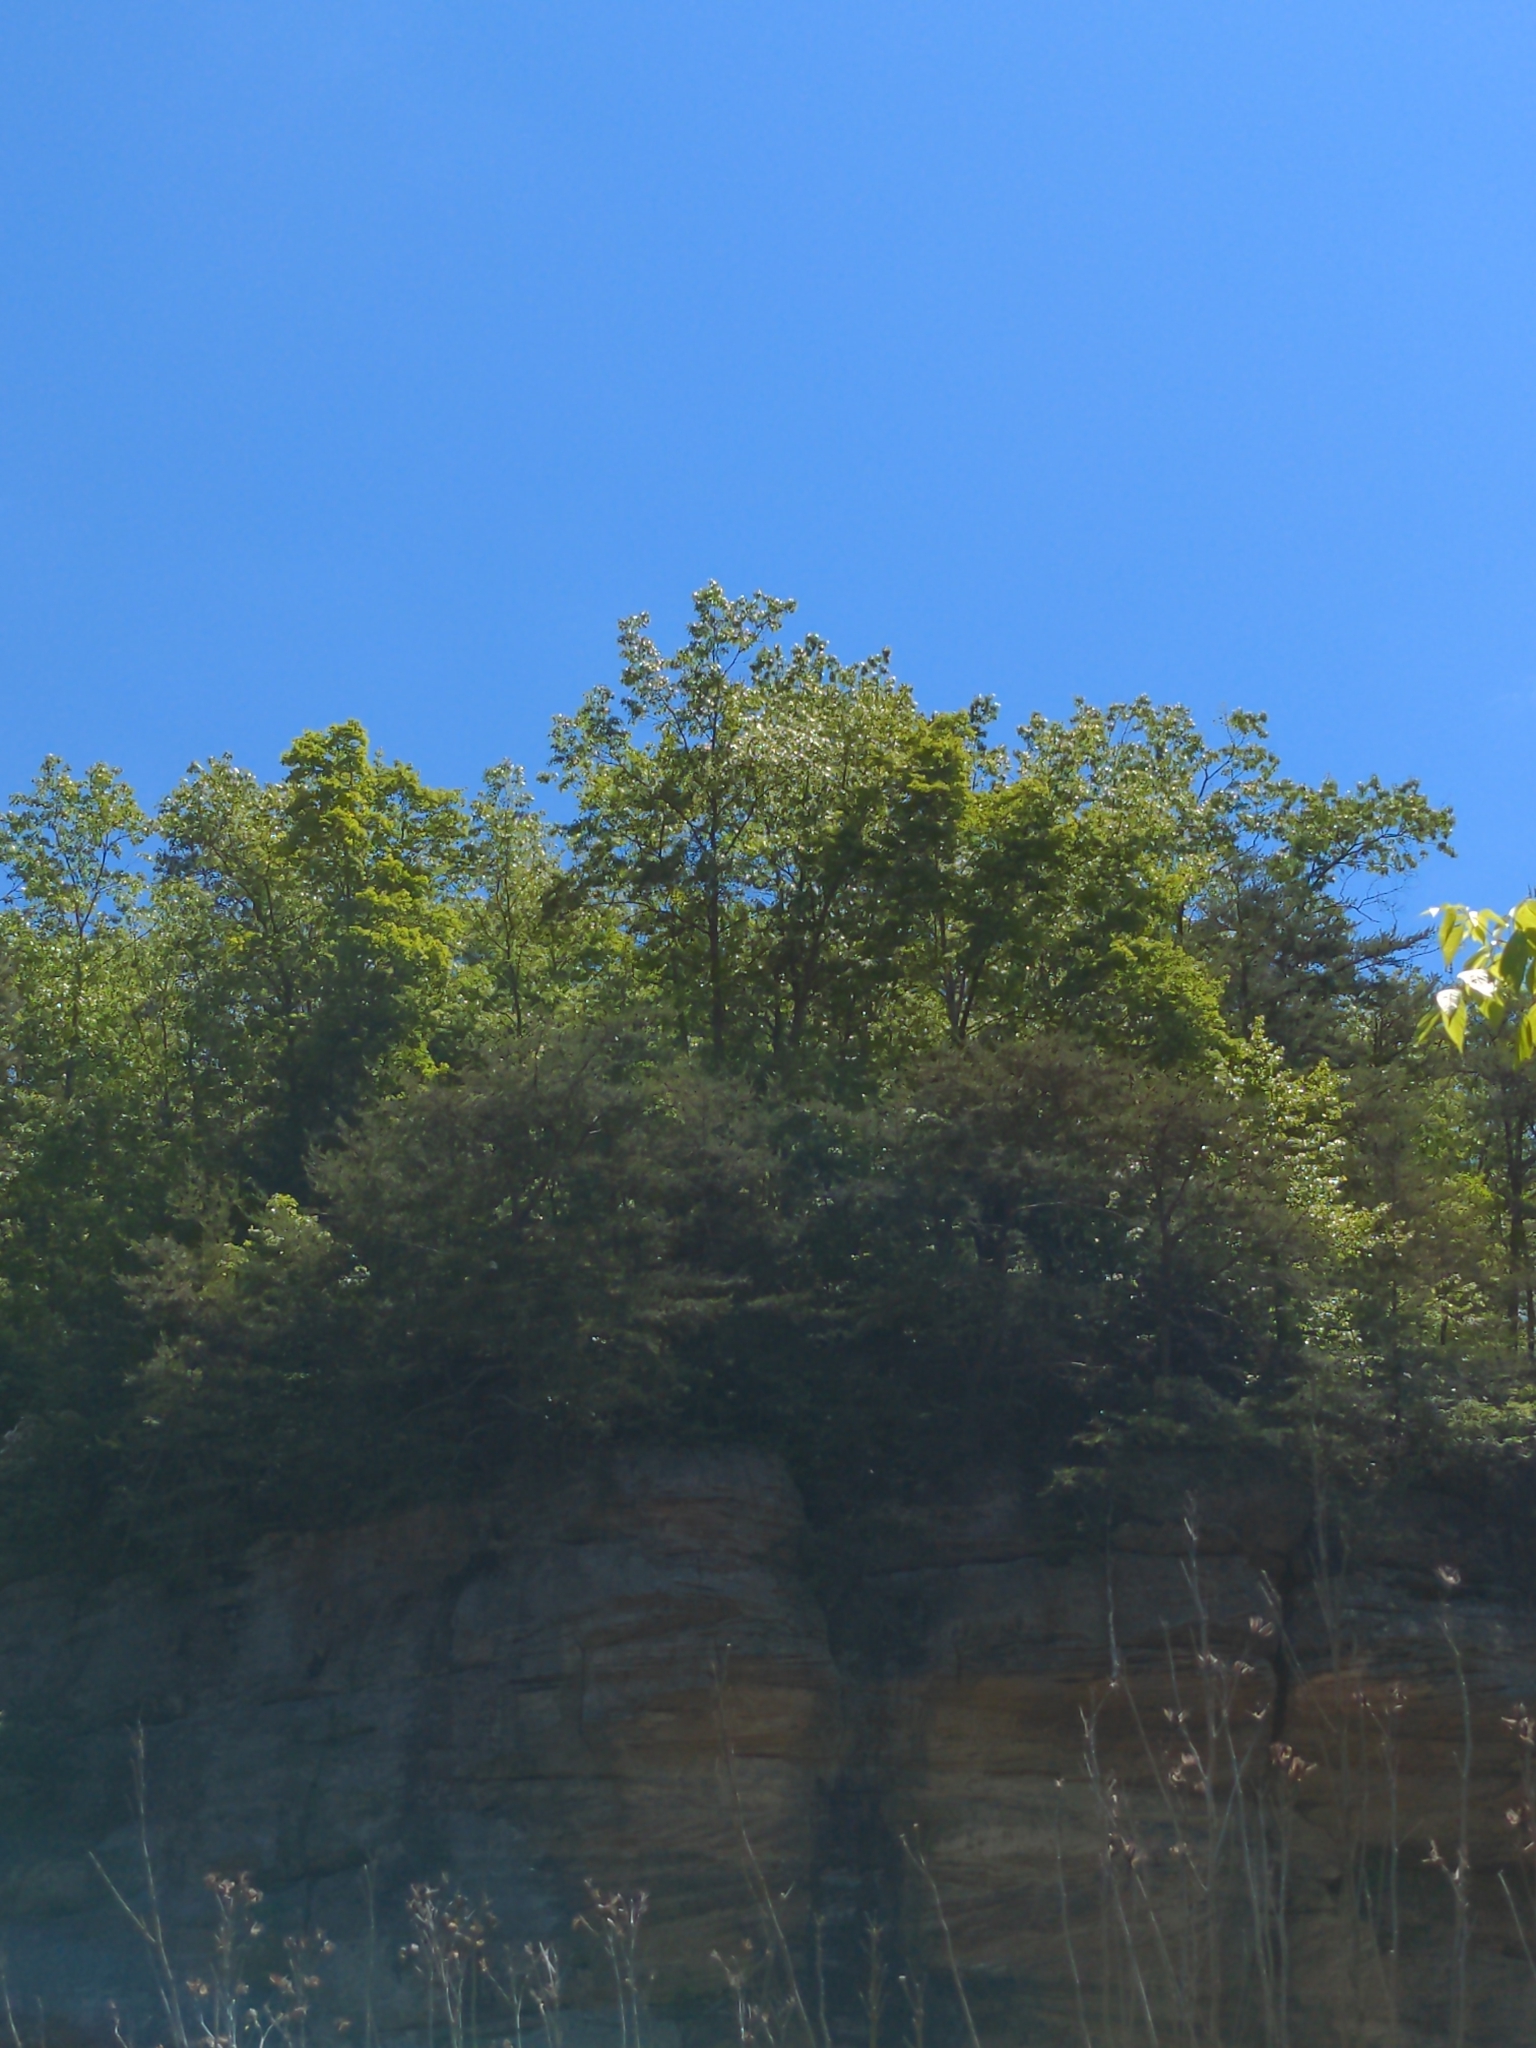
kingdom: Animalia
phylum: Chordata
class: Aves
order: Accipitriformes
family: Accipitridae
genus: Haliaeetus
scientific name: Haliaeetus leucocephalus
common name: Bald eagle
